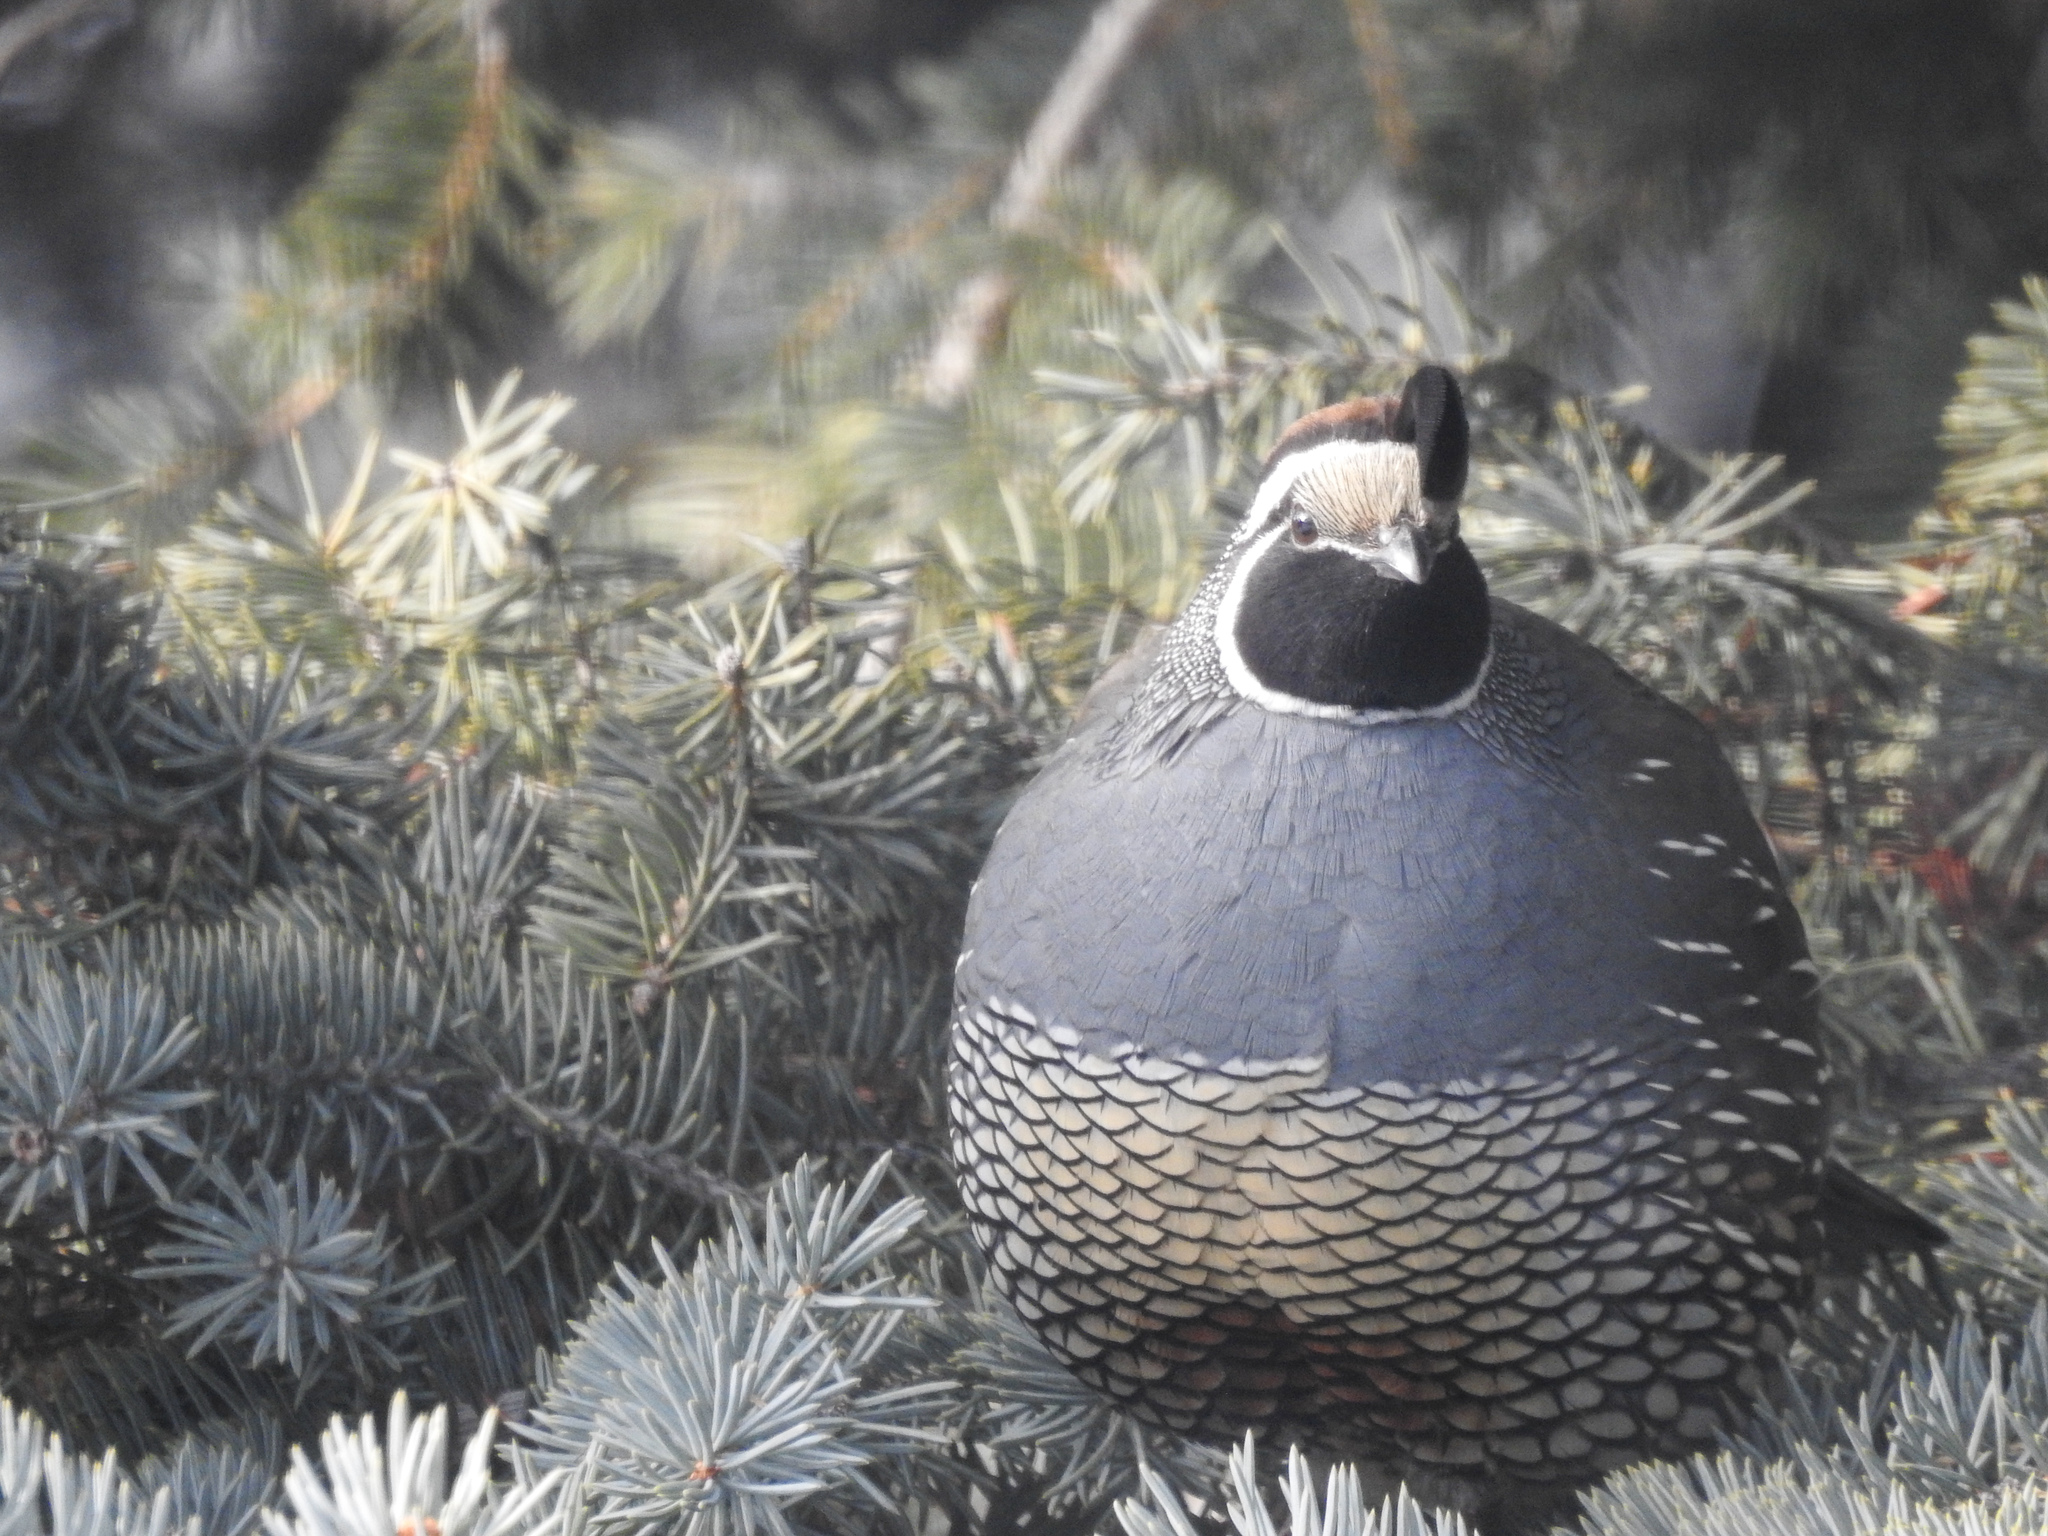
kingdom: Animalia
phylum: Chordata
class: Aves
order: Galliformes
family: Odontophoridae
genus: Callipepla
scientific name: Callipepla californica
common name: California quail
